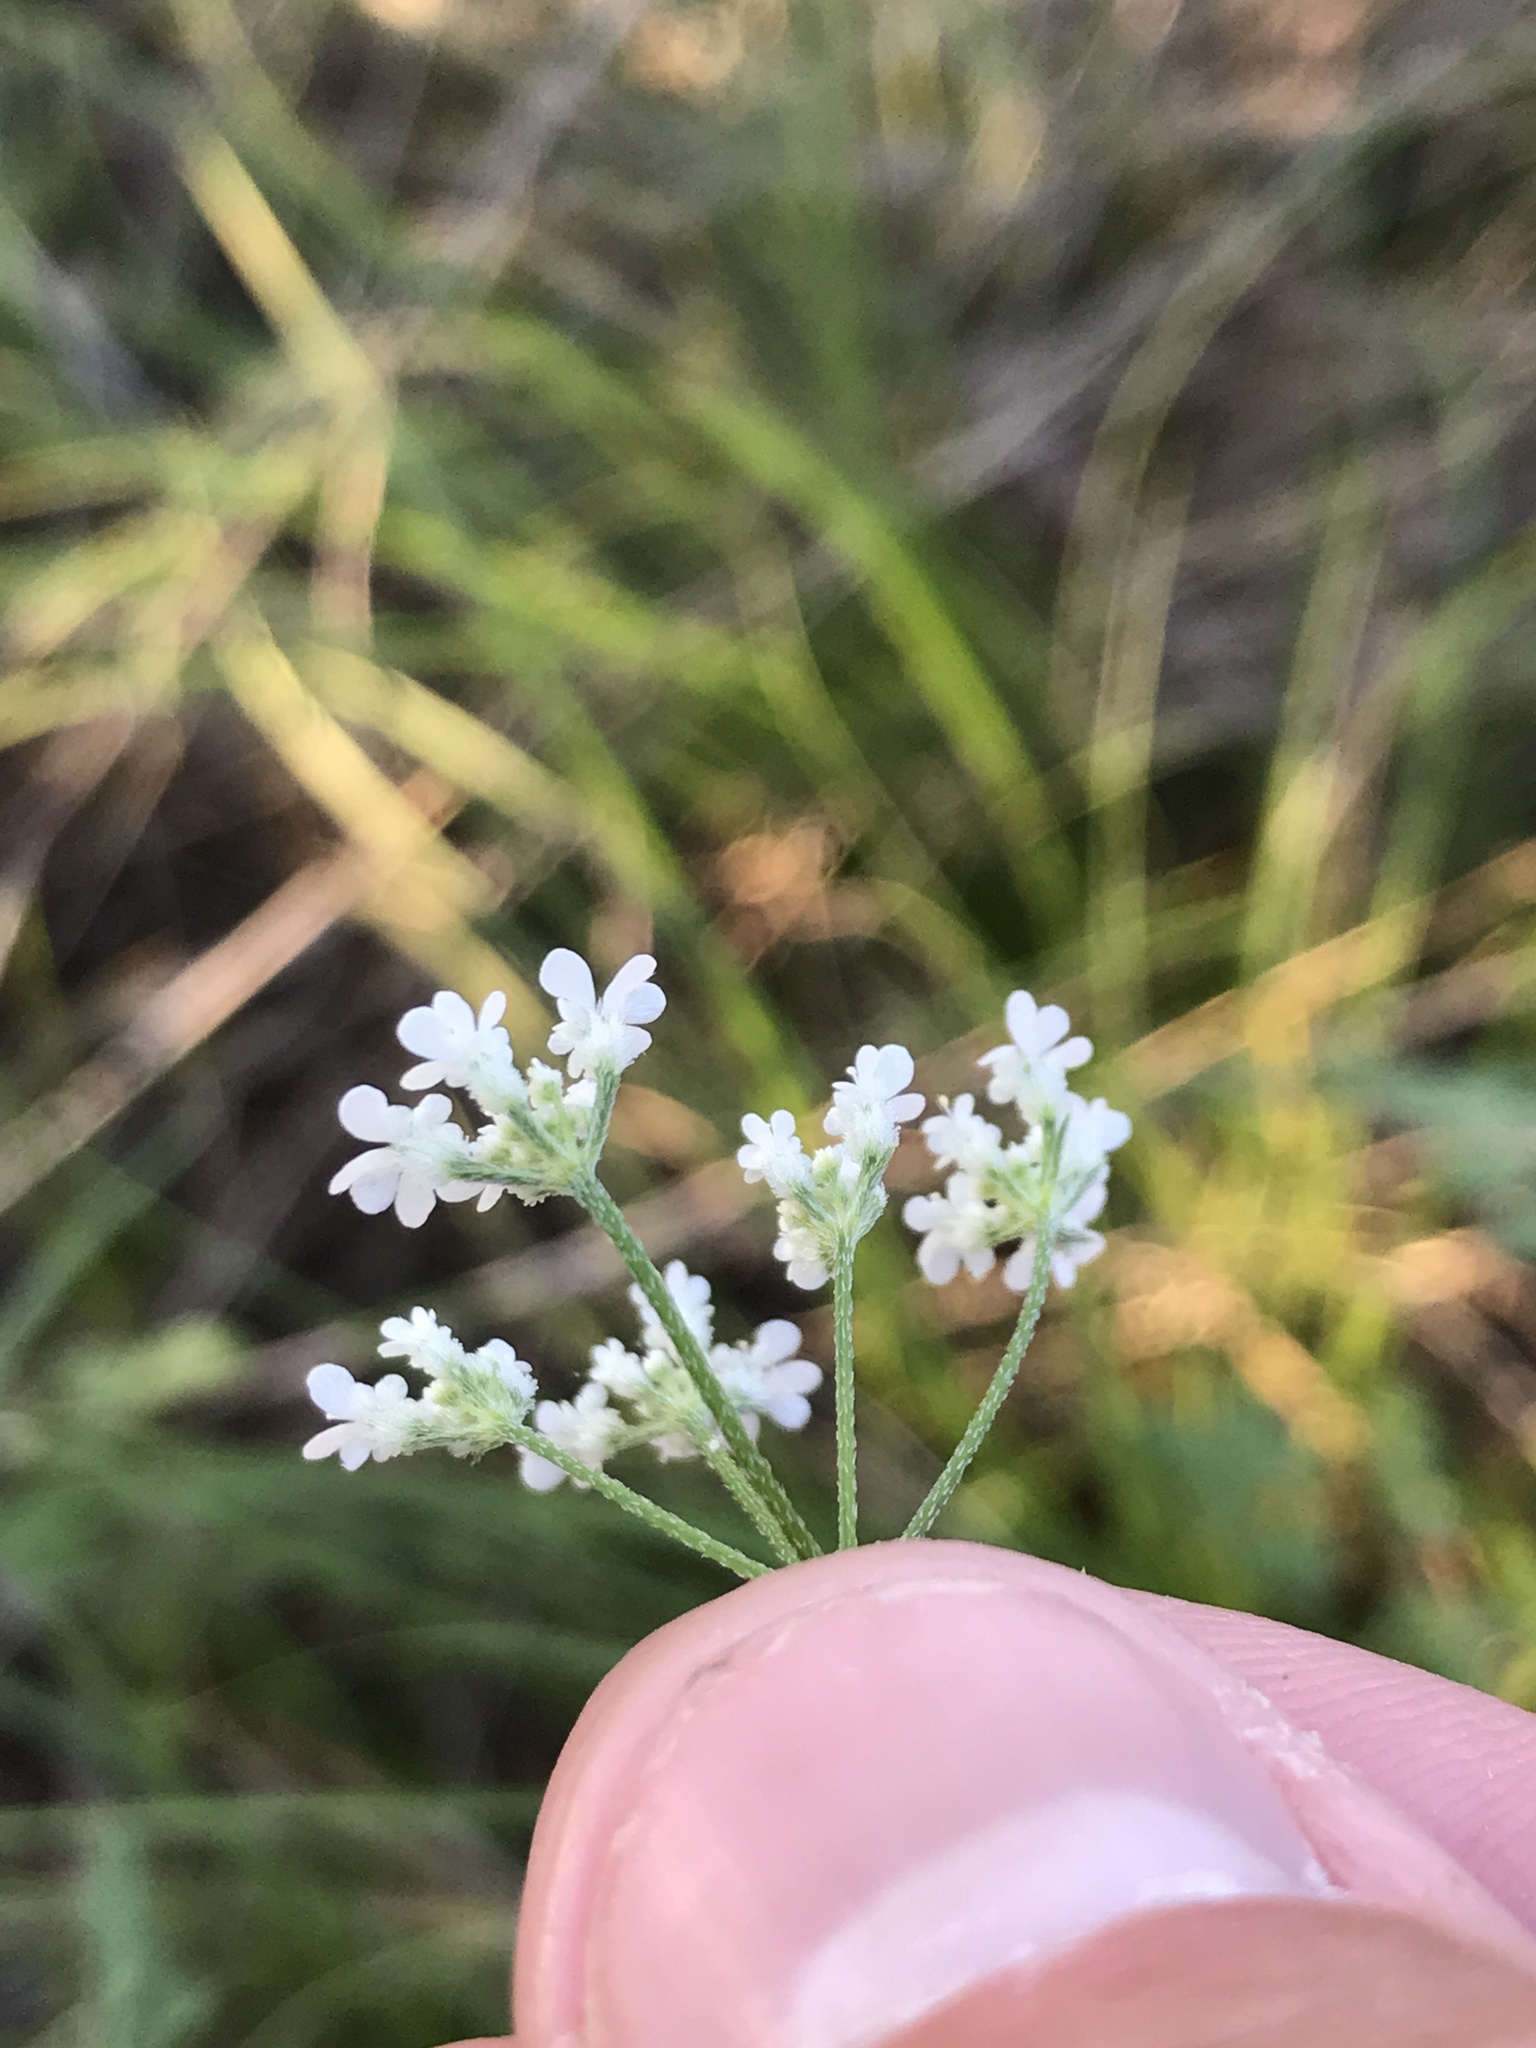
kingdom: Plantae
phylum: Tracheophyta
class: Magnoliopsida
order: Apiales
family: Apiaceae
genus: Torilis
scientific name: Torilis arvensis
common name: Spreading hedge-parsley
